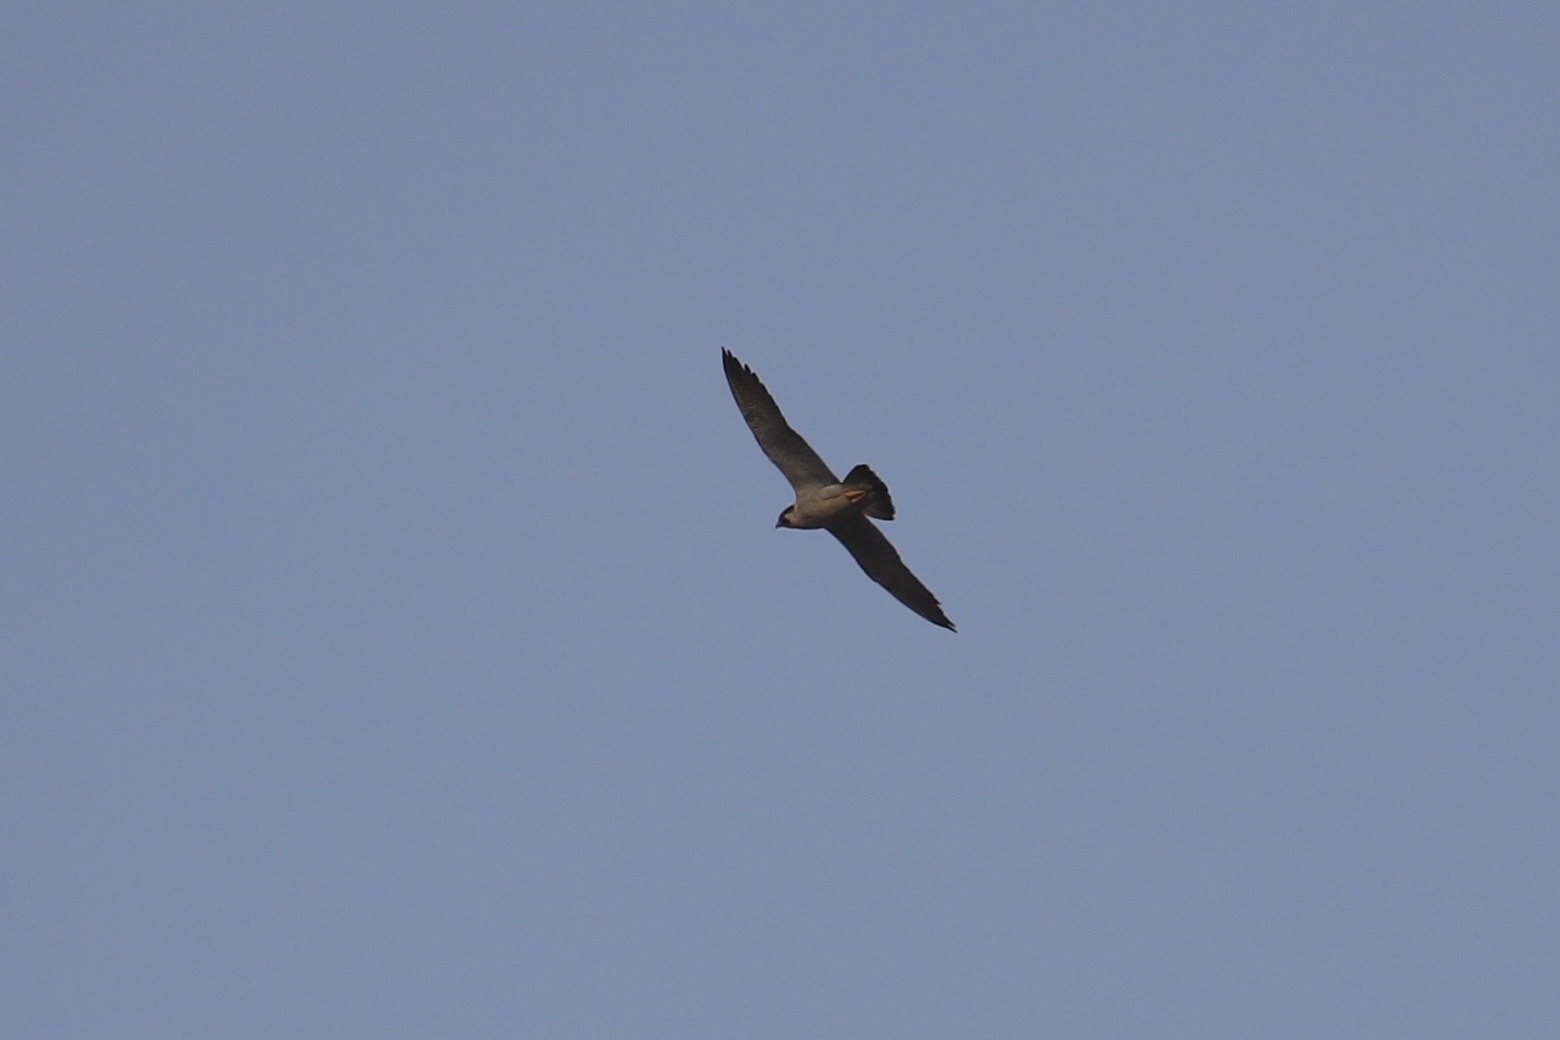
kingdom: Animalia
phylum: Chordata
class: Aves
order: Falconiformes
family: Falconidae
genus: Falco
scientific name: Falco peregrinus
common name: Peregrine falcon
